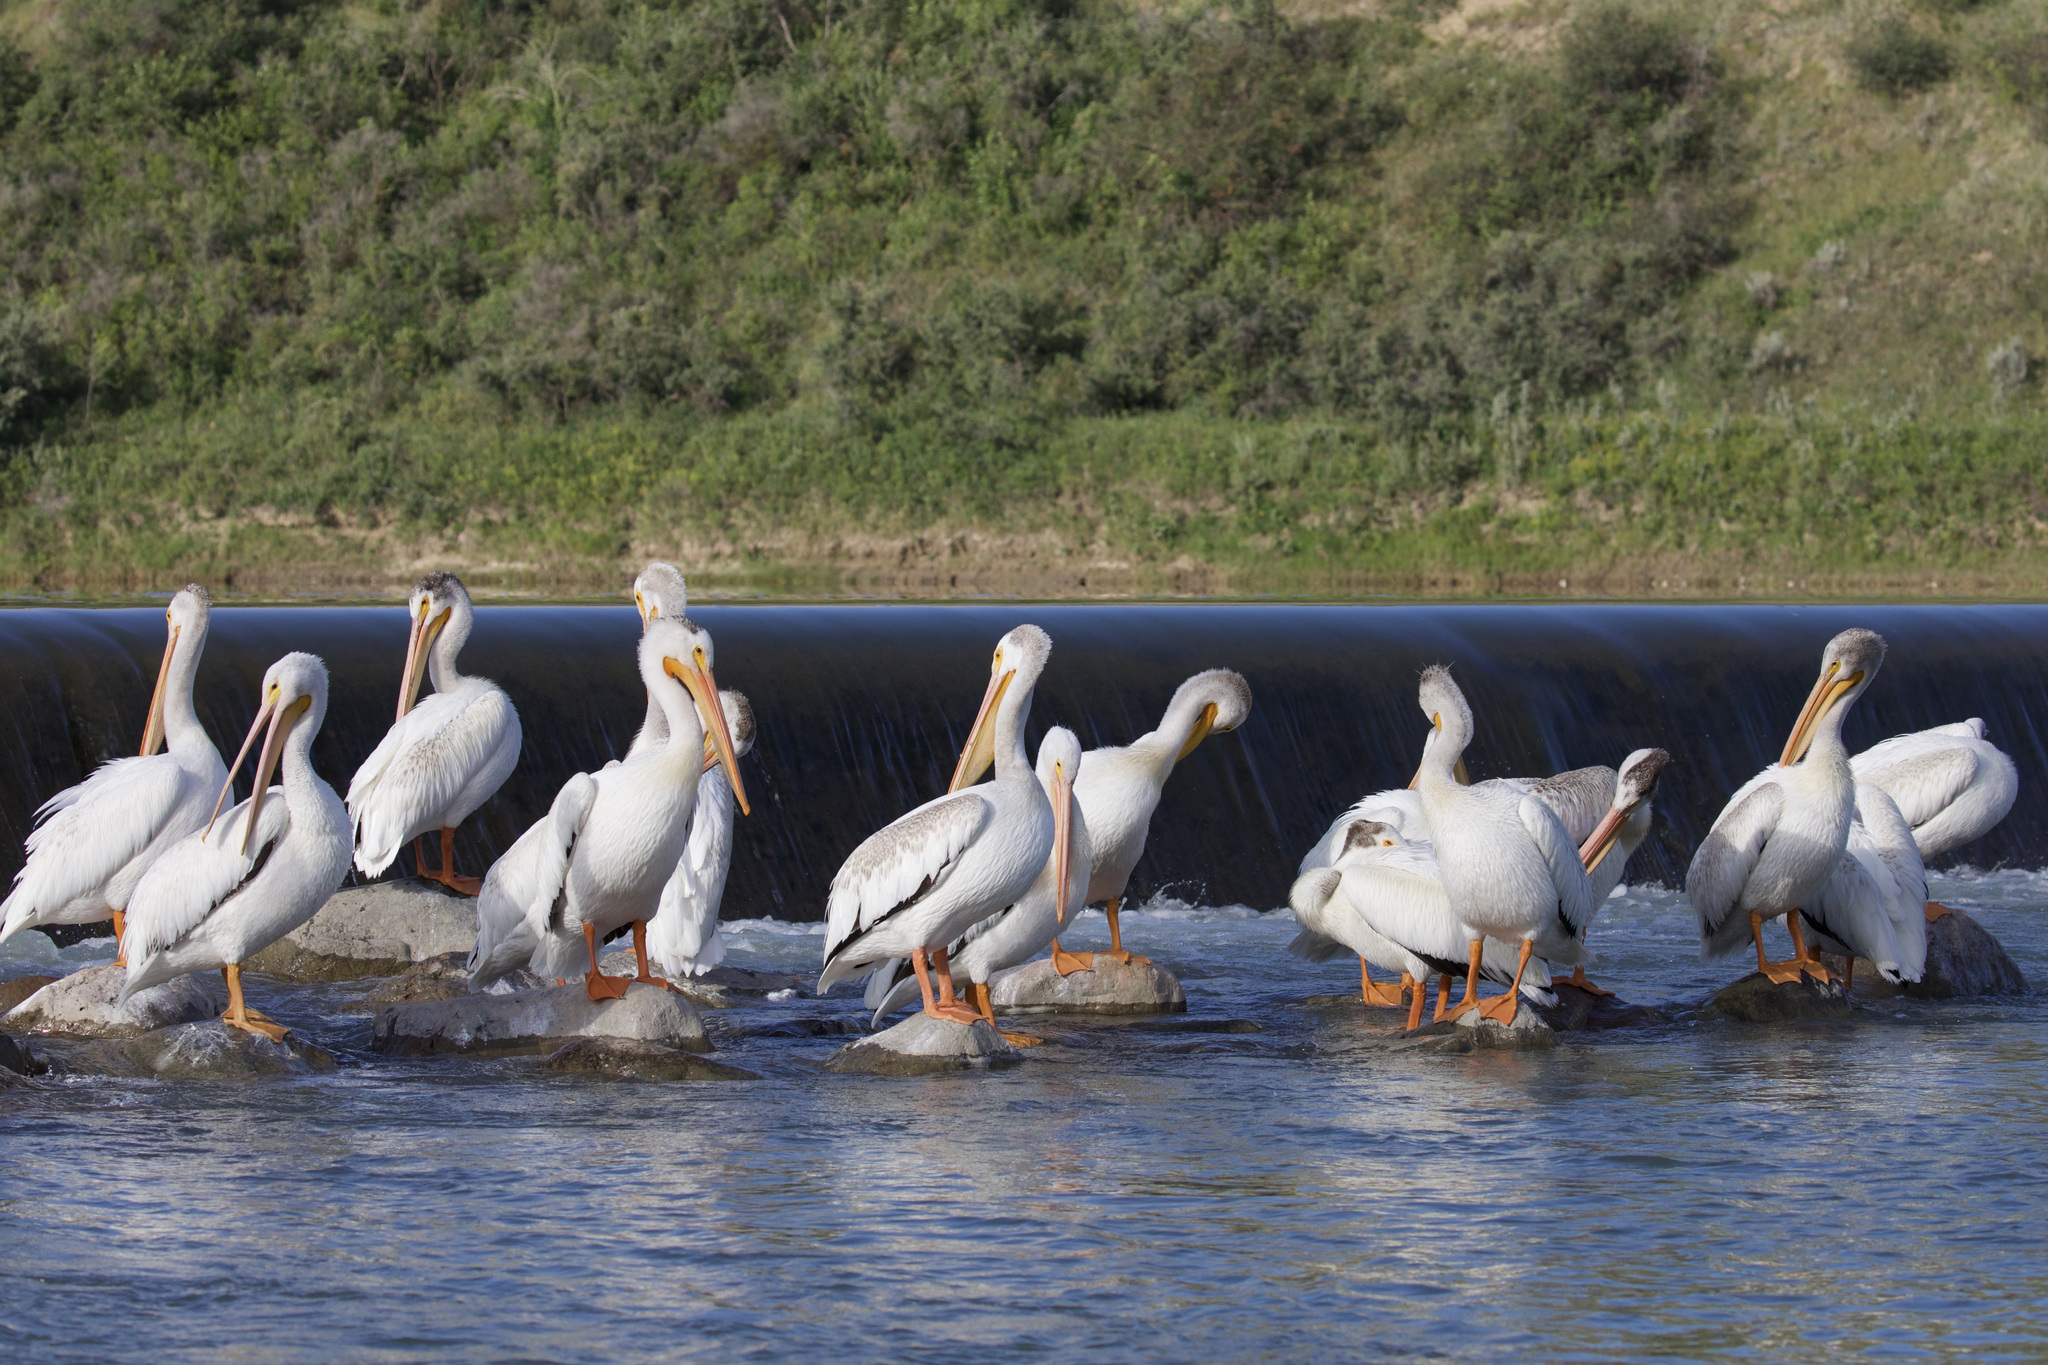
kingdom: Animalia
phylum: Chordata
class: Aves
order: Pelecaniformes
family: Pelecanidae
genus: Pelecanus
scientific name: Pelecanus erythrorhynchos
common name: American white pelican
